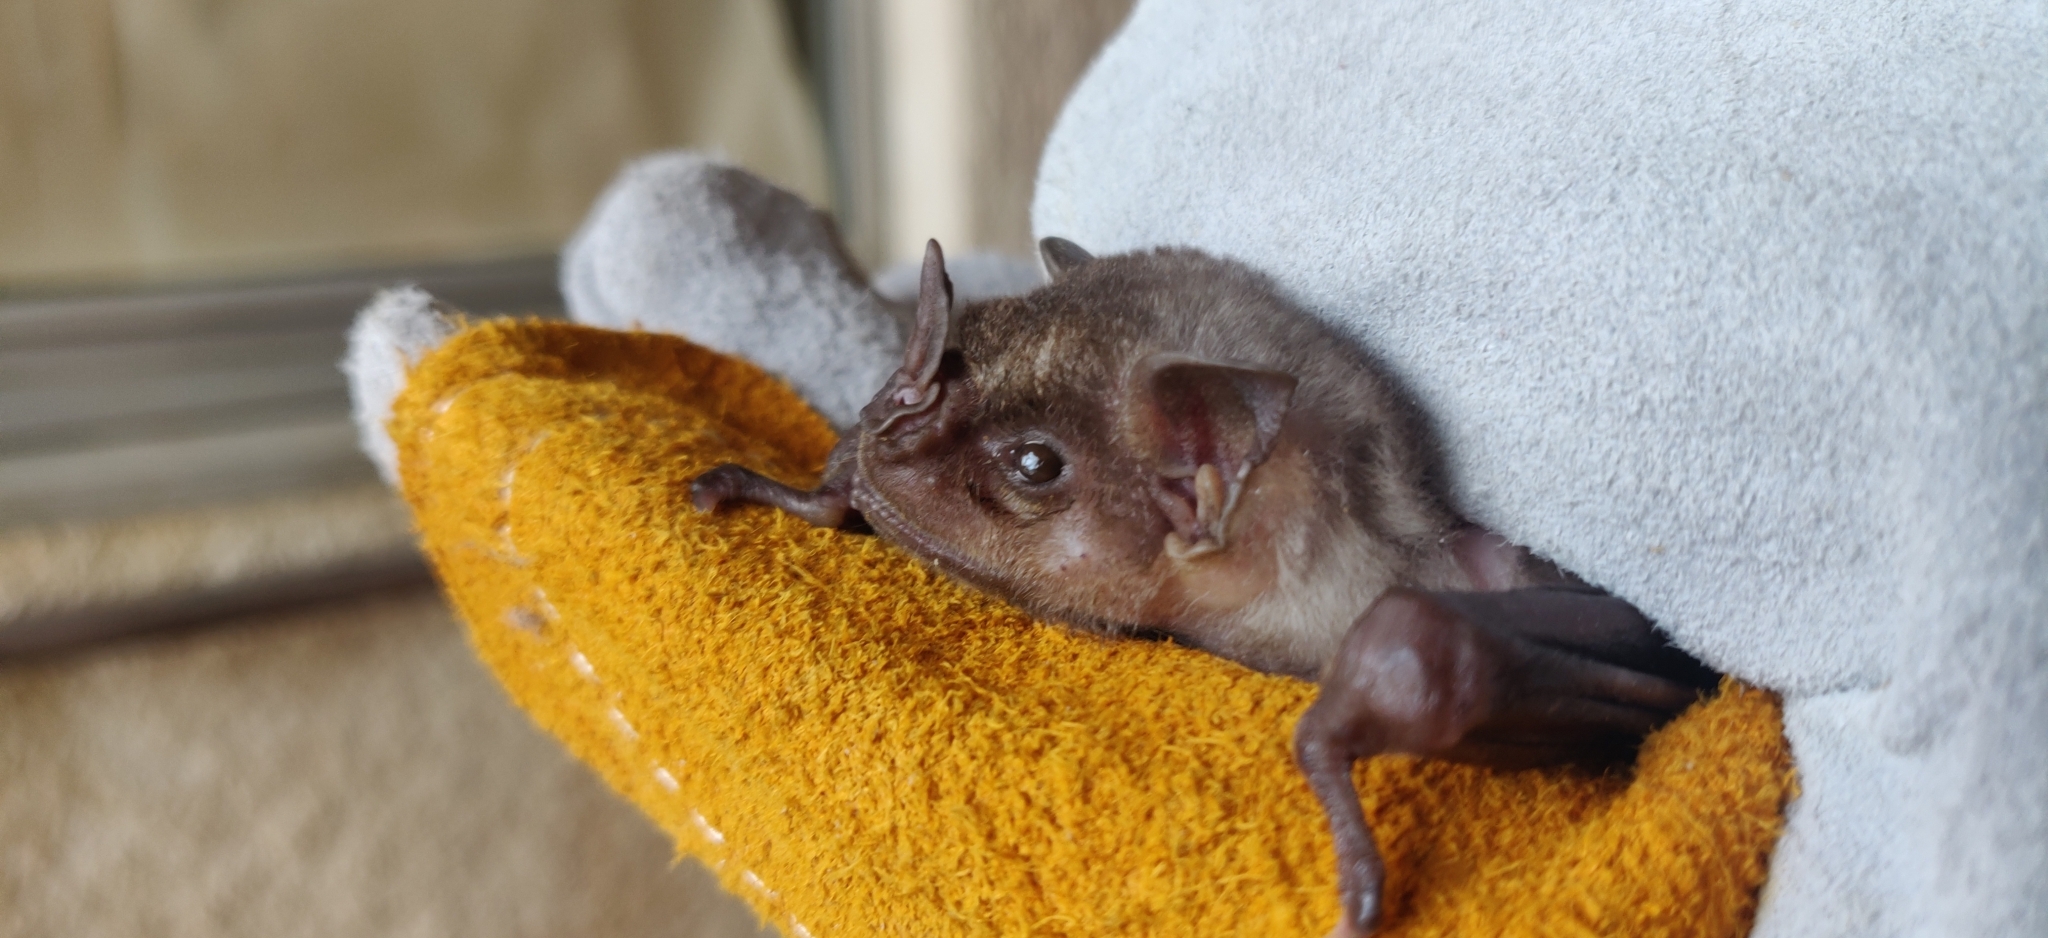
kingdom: Animalia
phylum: Chordata
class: Mammalia
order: Chiroptera
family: Phyllostomidae
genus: Artibeus
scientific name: Artibeus jamaicensis
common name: Jamaican fruit-eating bat
